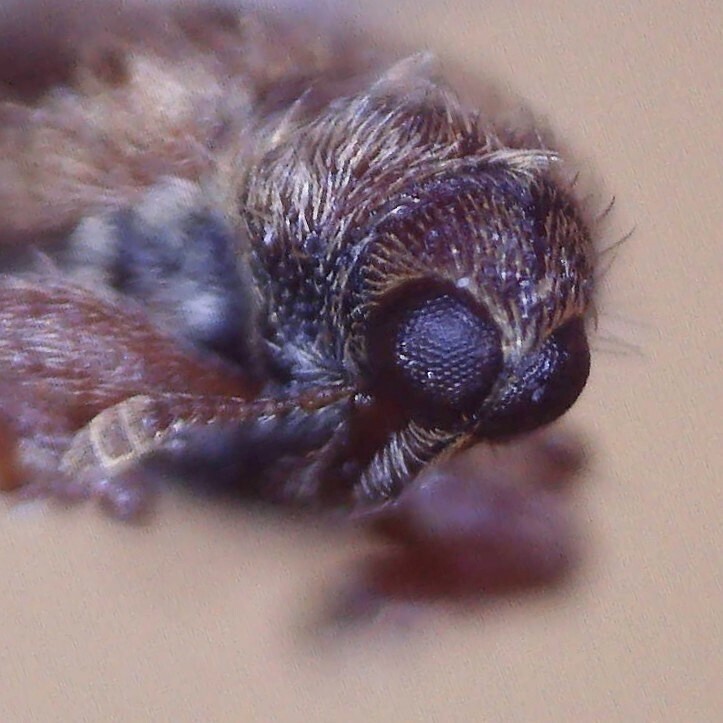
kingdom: Animalia
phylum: Arthropoda
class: Insecta
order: Coleoptera
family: Curculionidae
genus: Orchestes
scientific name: Orchestes quercus
